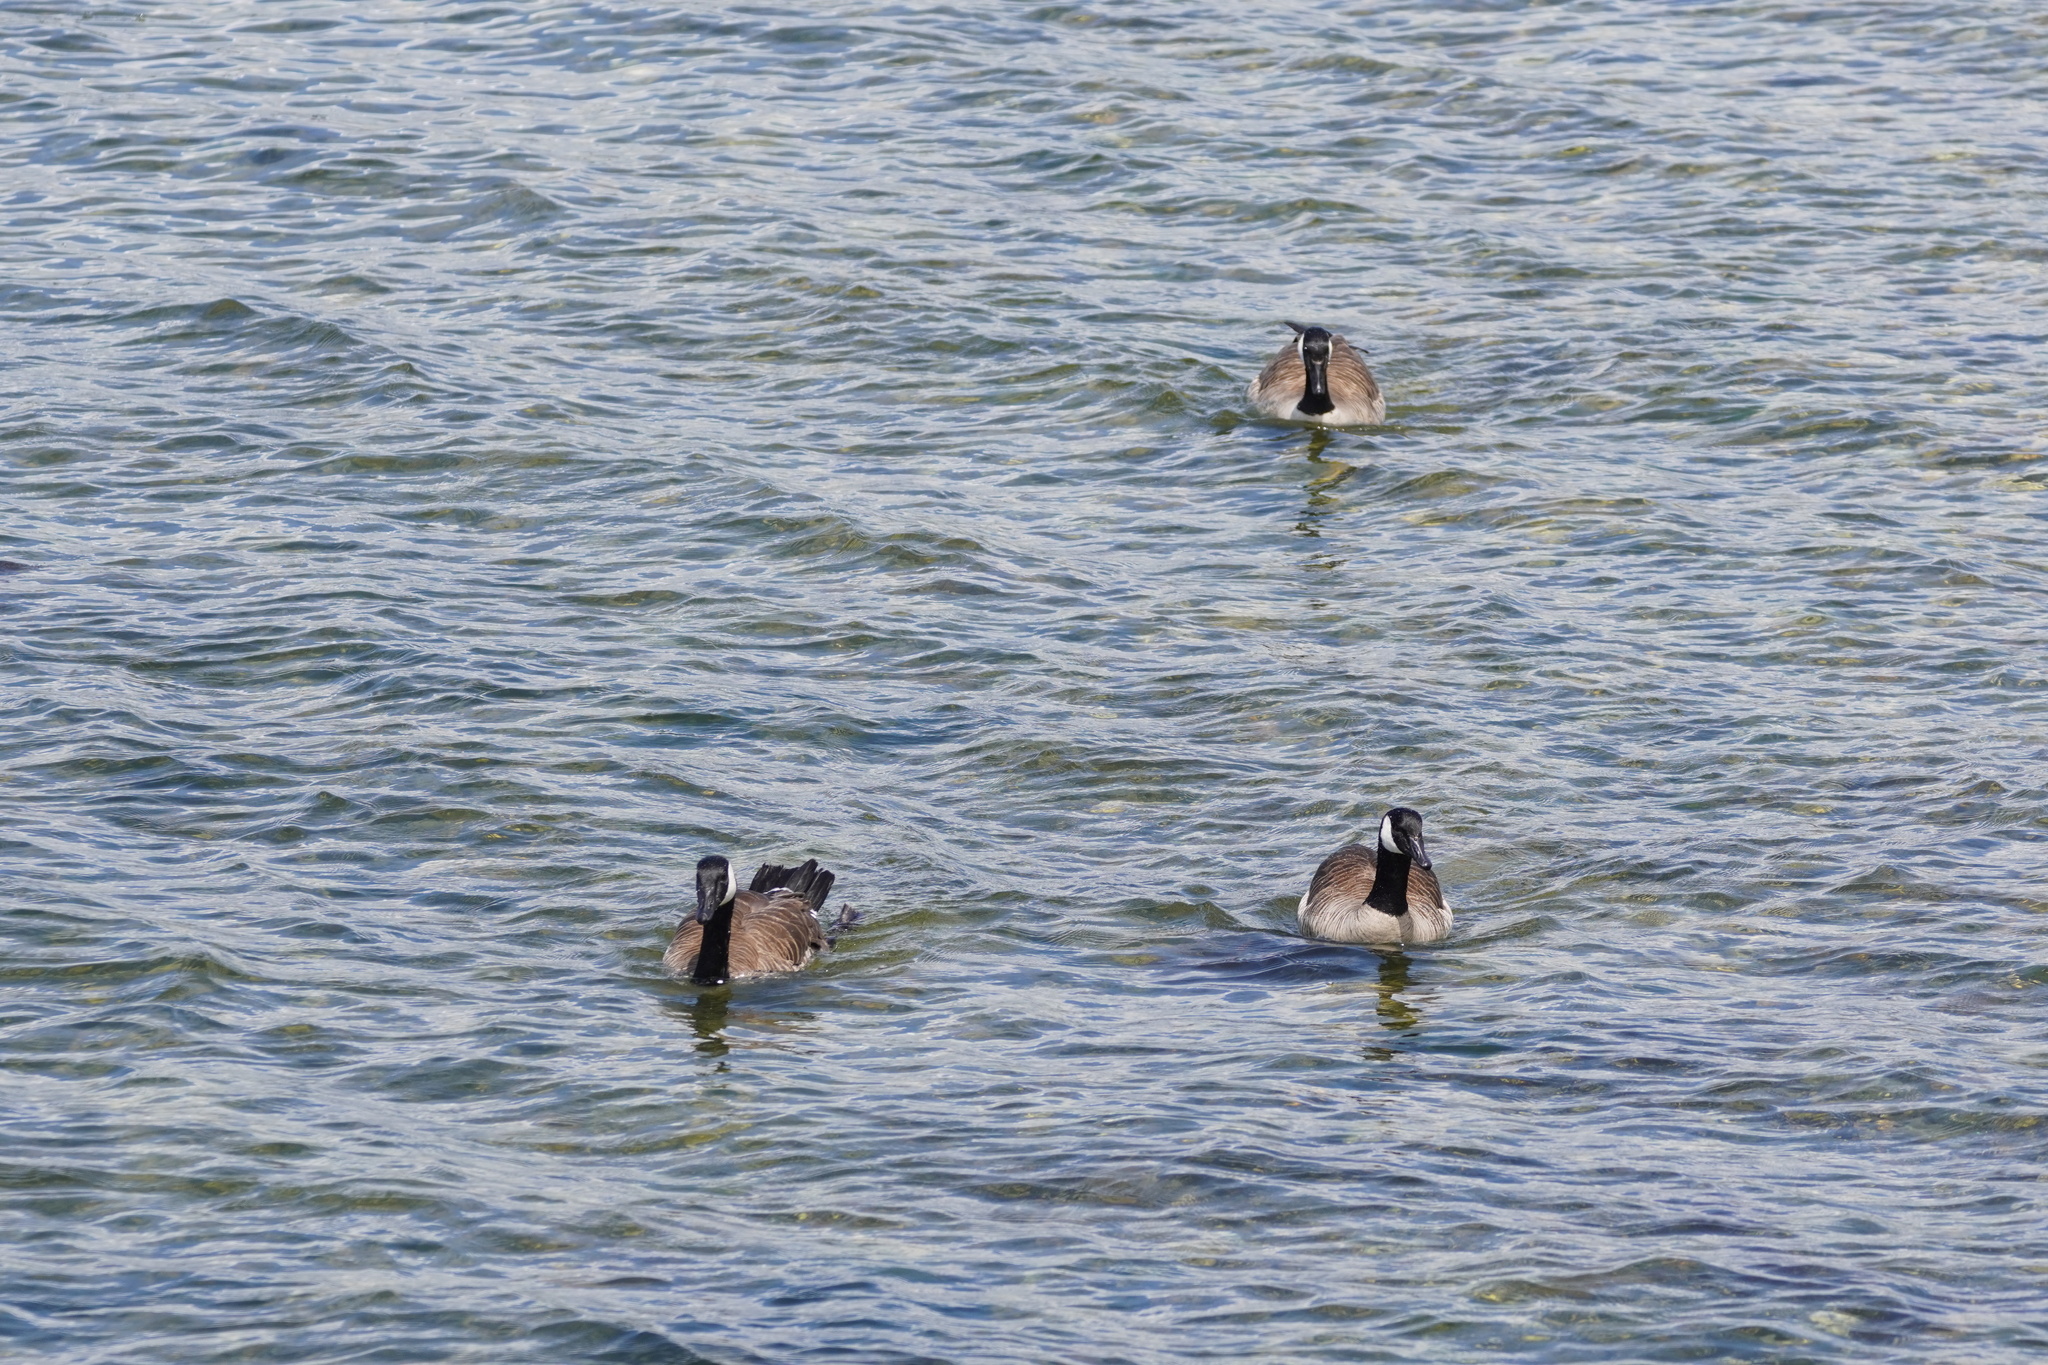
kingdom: Animalia
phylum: Chordata
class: Aves
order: Anseriformes
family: Anatidae
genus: Branta
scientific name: Branta canadensis
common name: Canada goose
